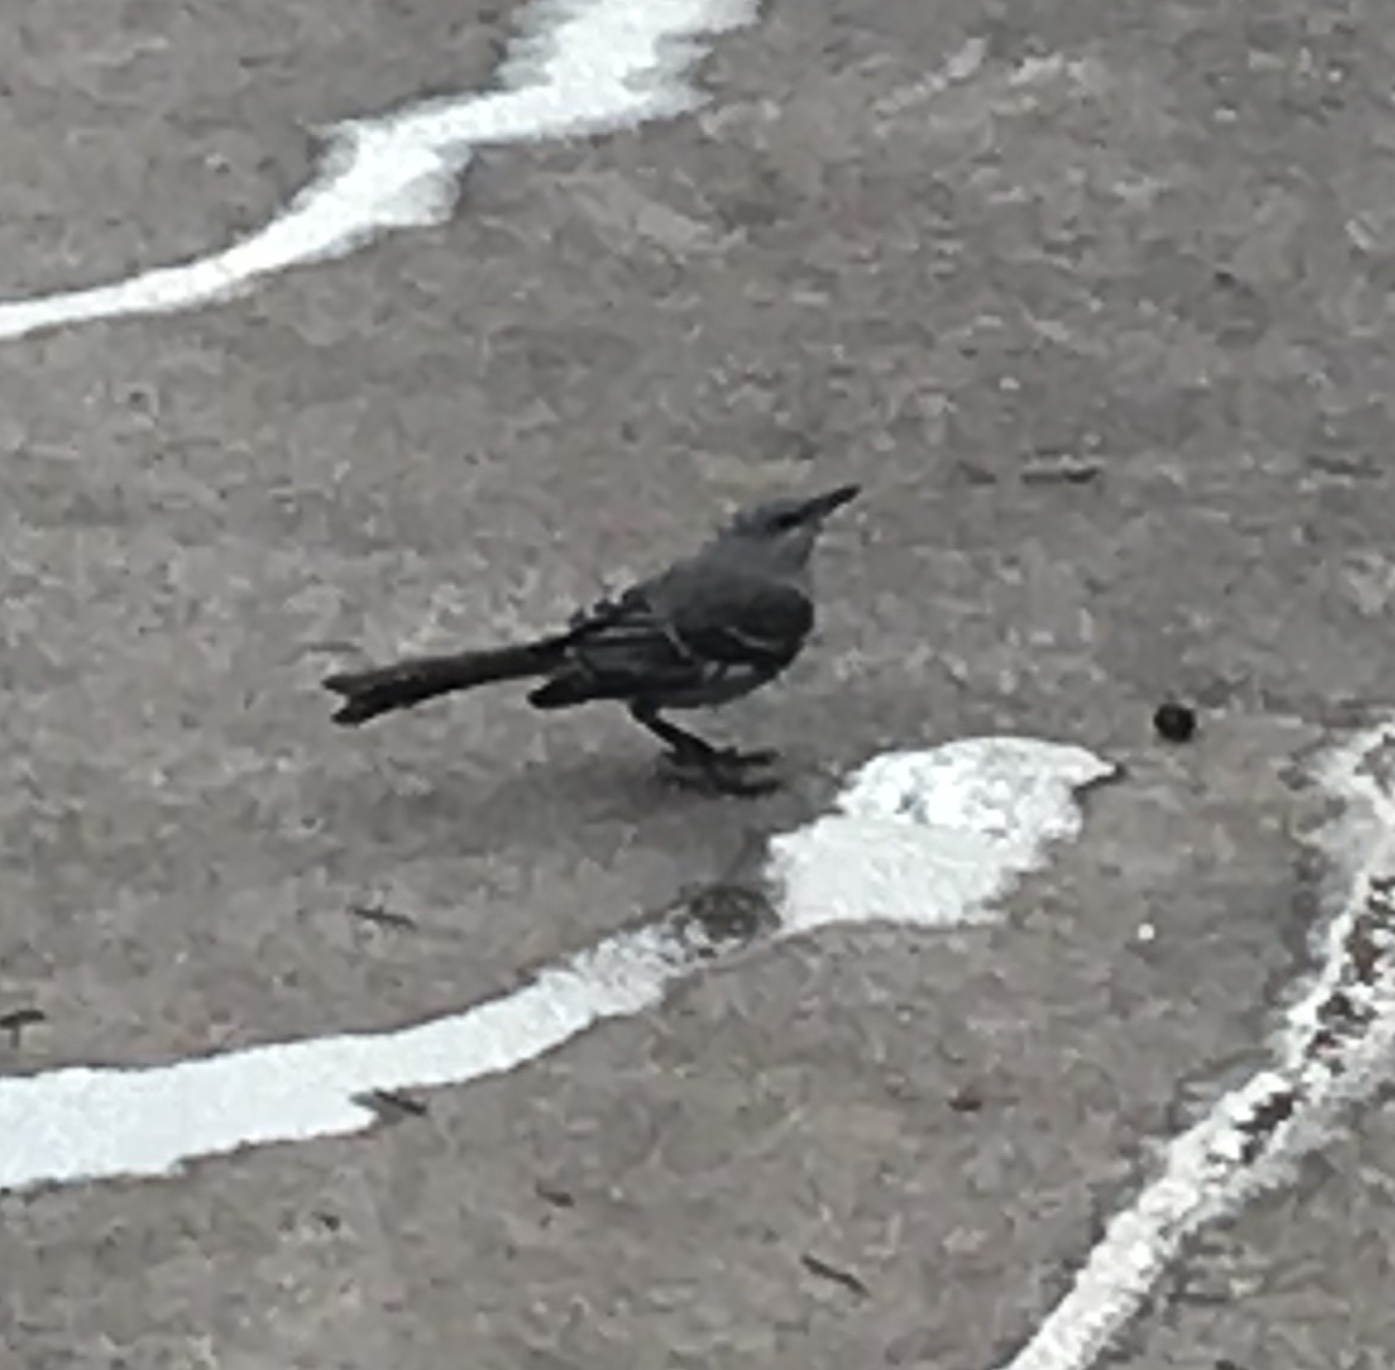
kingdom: Animalia
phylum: Chordata
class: Aves
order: Passeriformes
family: Mimidae
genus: Mimus
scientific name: Mimus polyglottos
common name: Northern mockingbird
